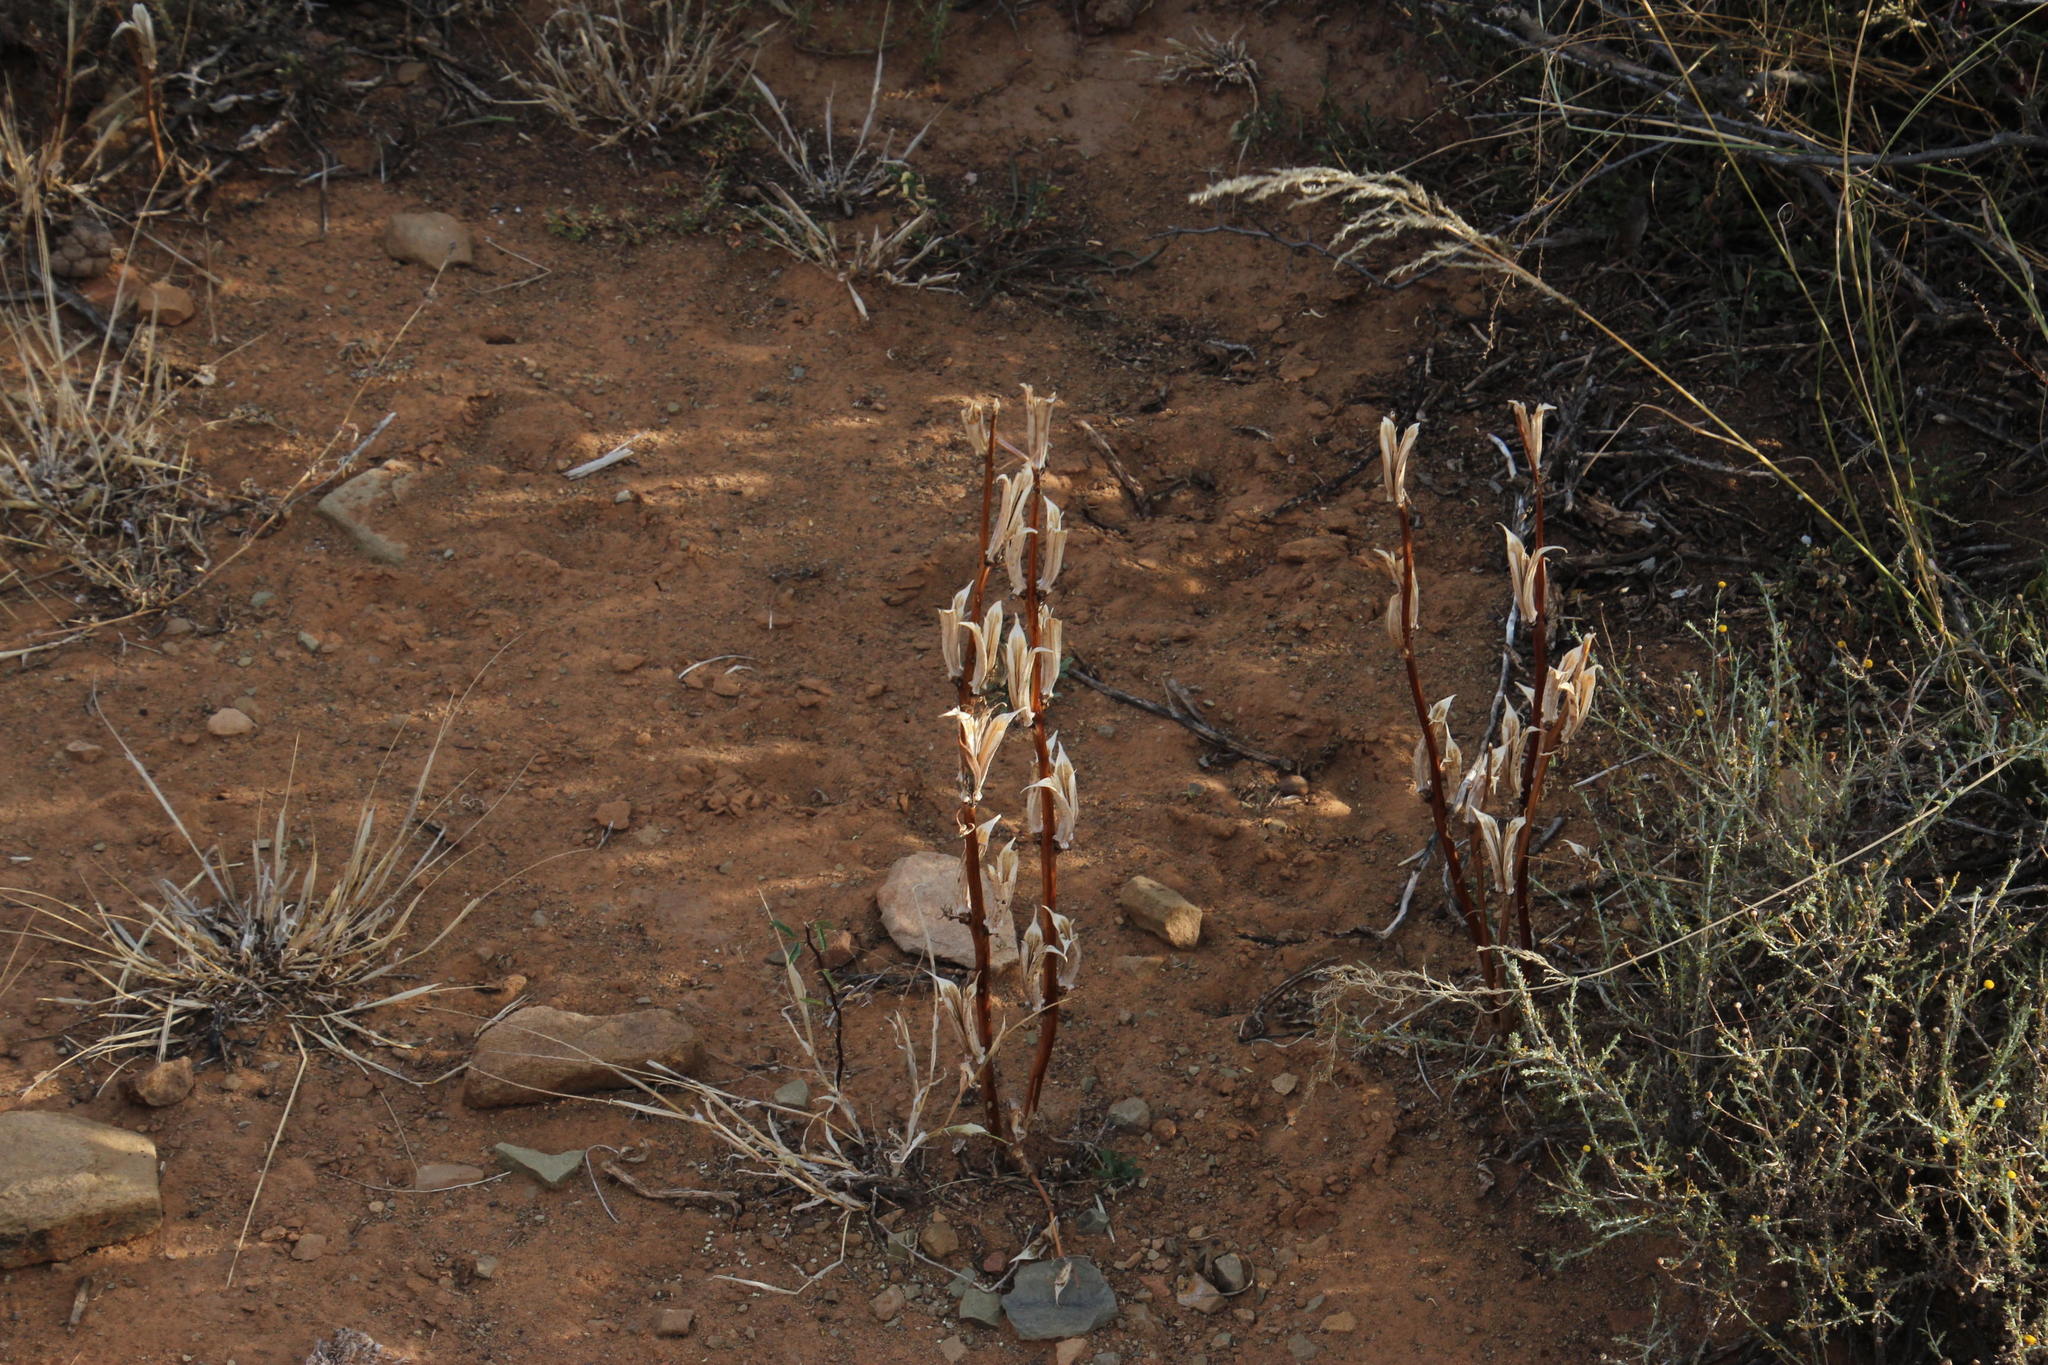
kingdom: Plantae
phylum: Tracheophyta
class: Magnoliopsida
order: Lamiales
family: Pedaliaceae
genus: Sesamum
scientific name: Sesamum capense
